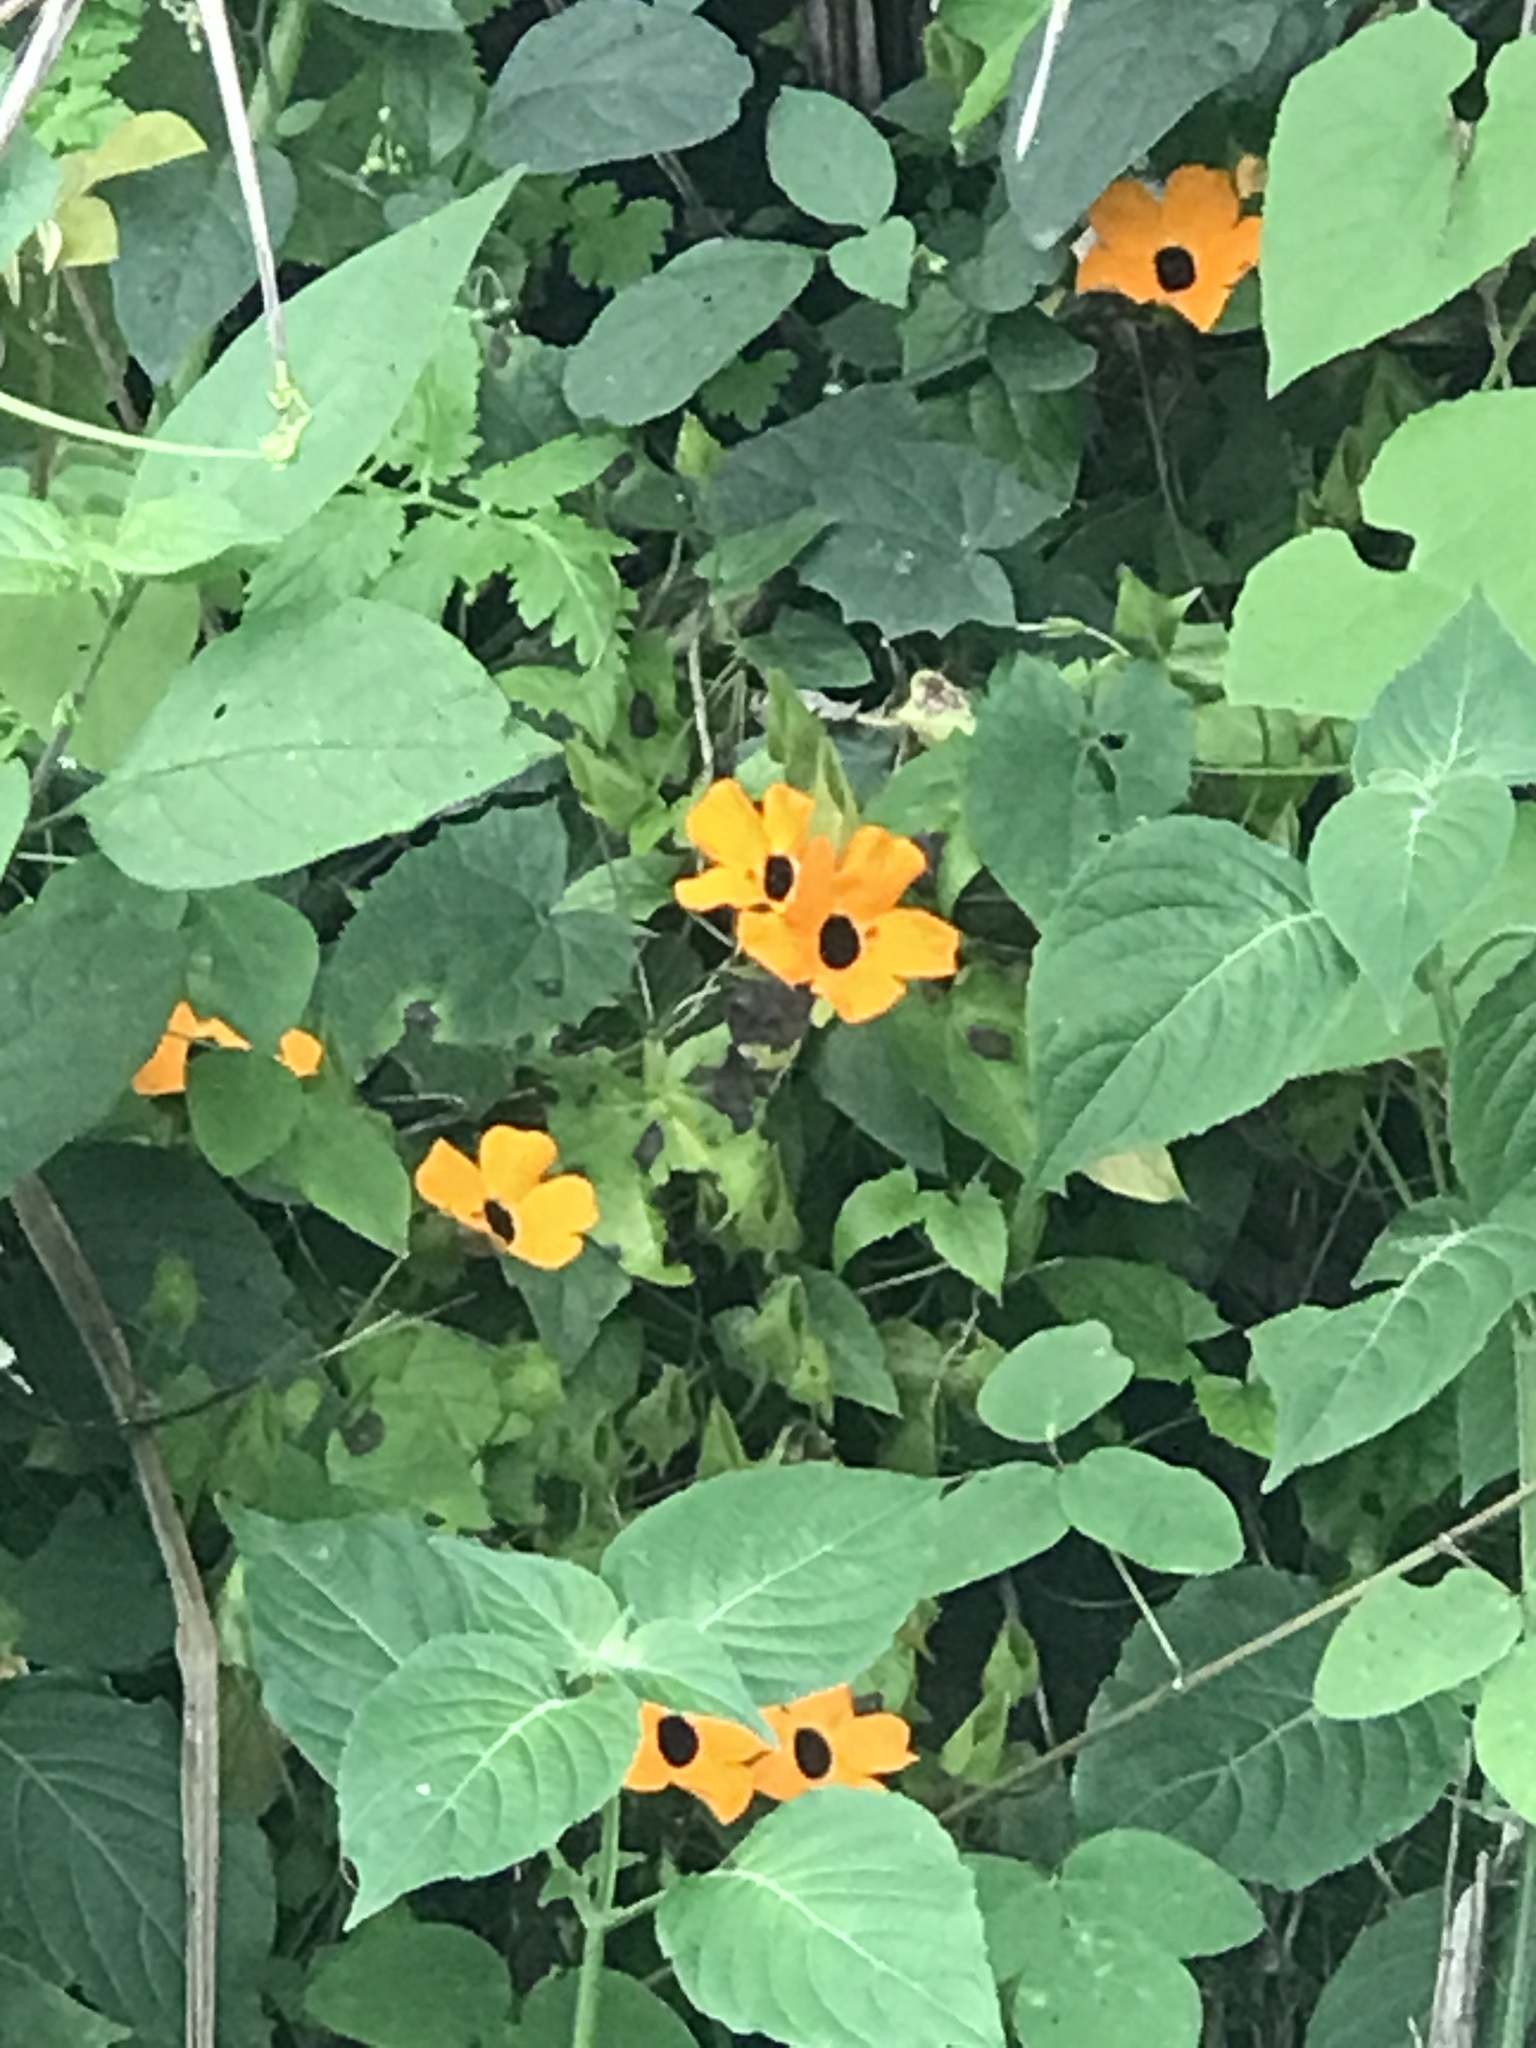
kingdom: Plantae
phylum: Tracheophyta
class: Magnoliopsida
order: Lamiales
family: Acanthaceae
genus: Thunbergia
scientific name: Thunbergia alata
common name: Blackeyed susan vine
